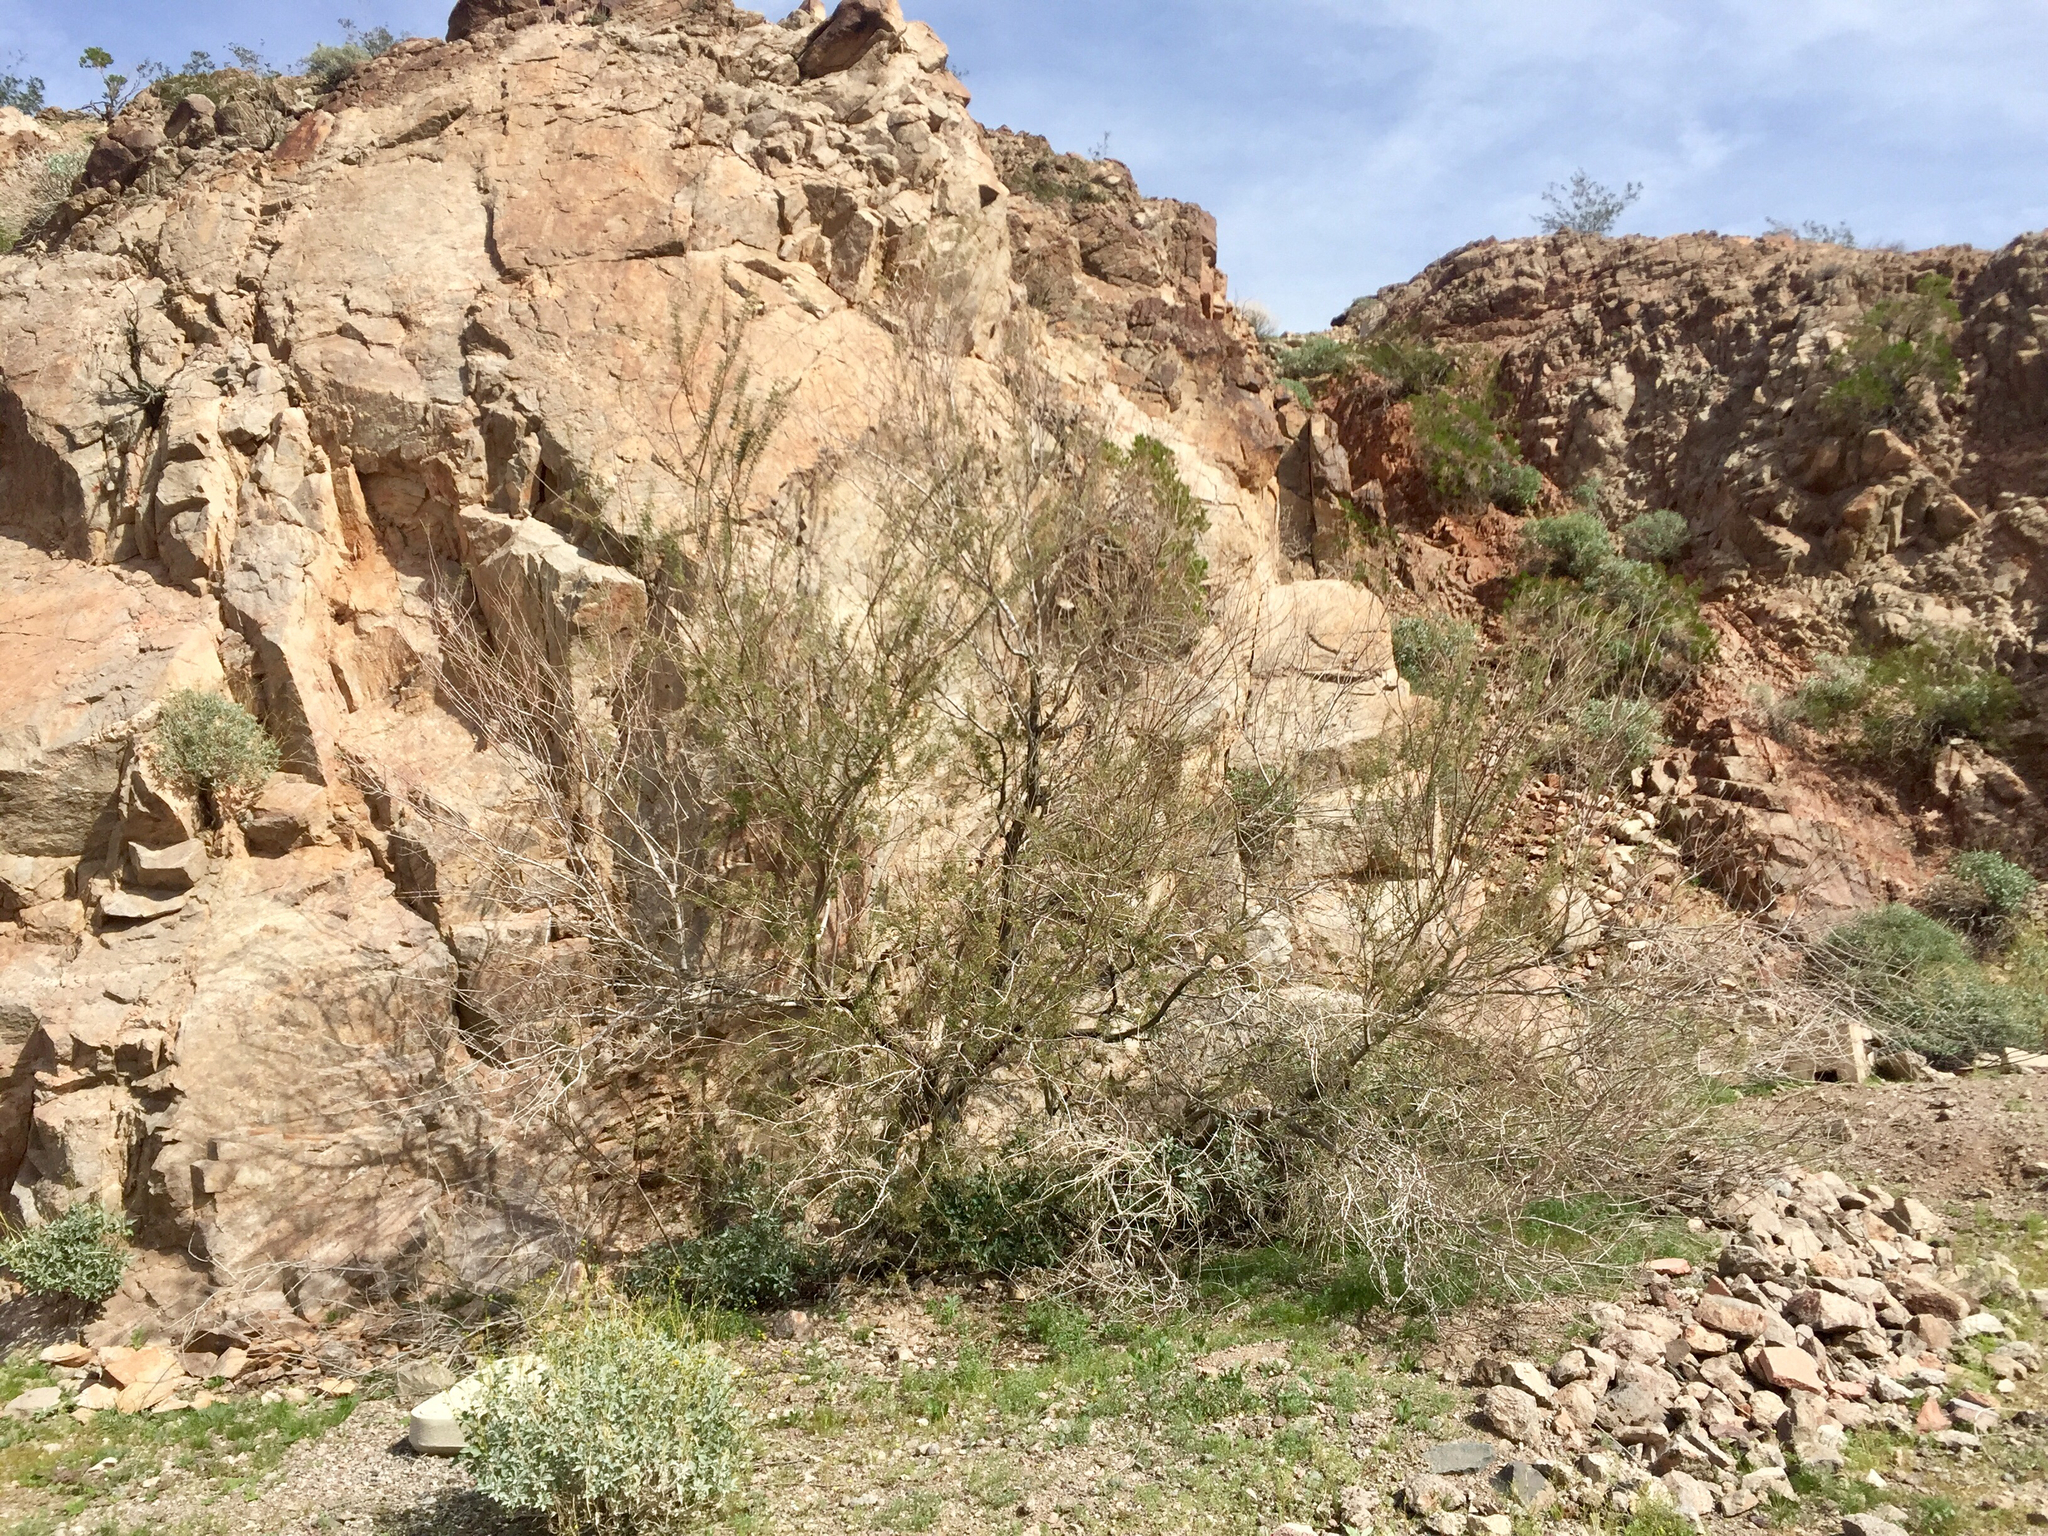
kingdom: Plantae
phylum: Tracheophyta
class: Magnoliopsida
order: Fabales
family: Fabaceae
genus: Senegalia
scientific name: Senegalia greggii
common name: Texas-mimosa
